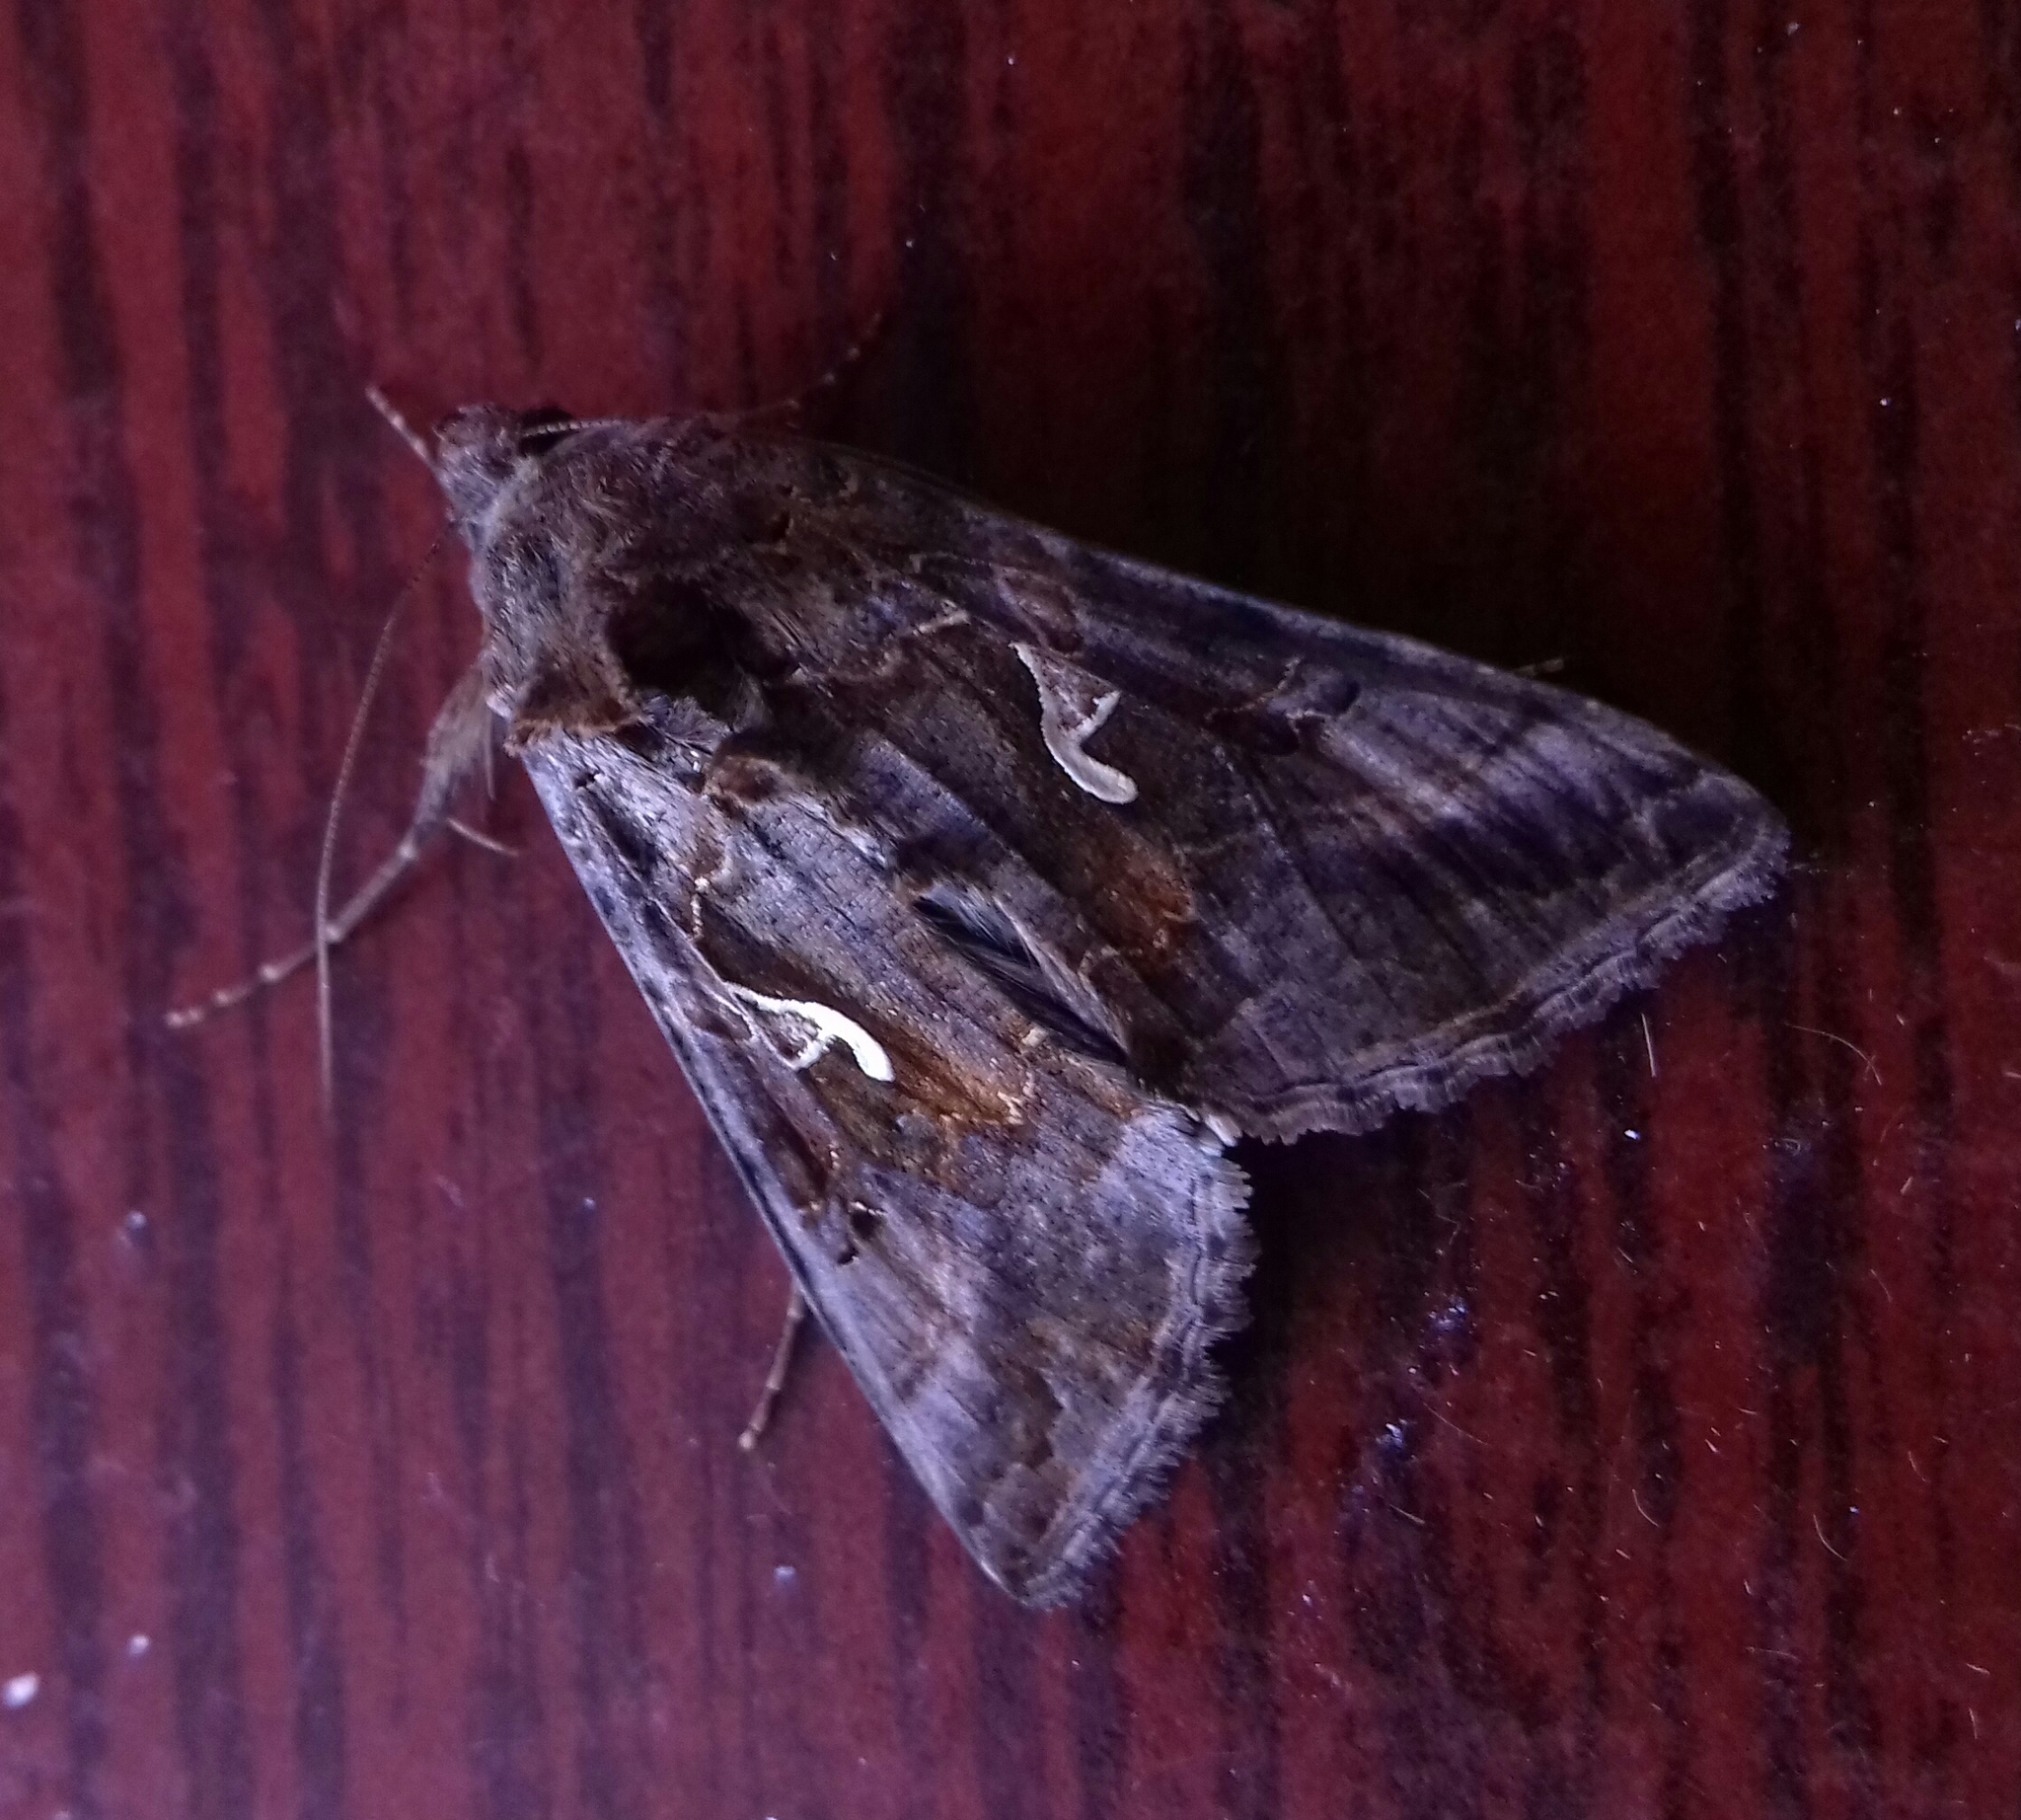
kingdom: Animalia
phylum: Arthropoda
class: Insecta
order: Lepidoptera
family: Noctuidae
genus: Autographa
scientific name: Autographa gamma
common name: Silver y
